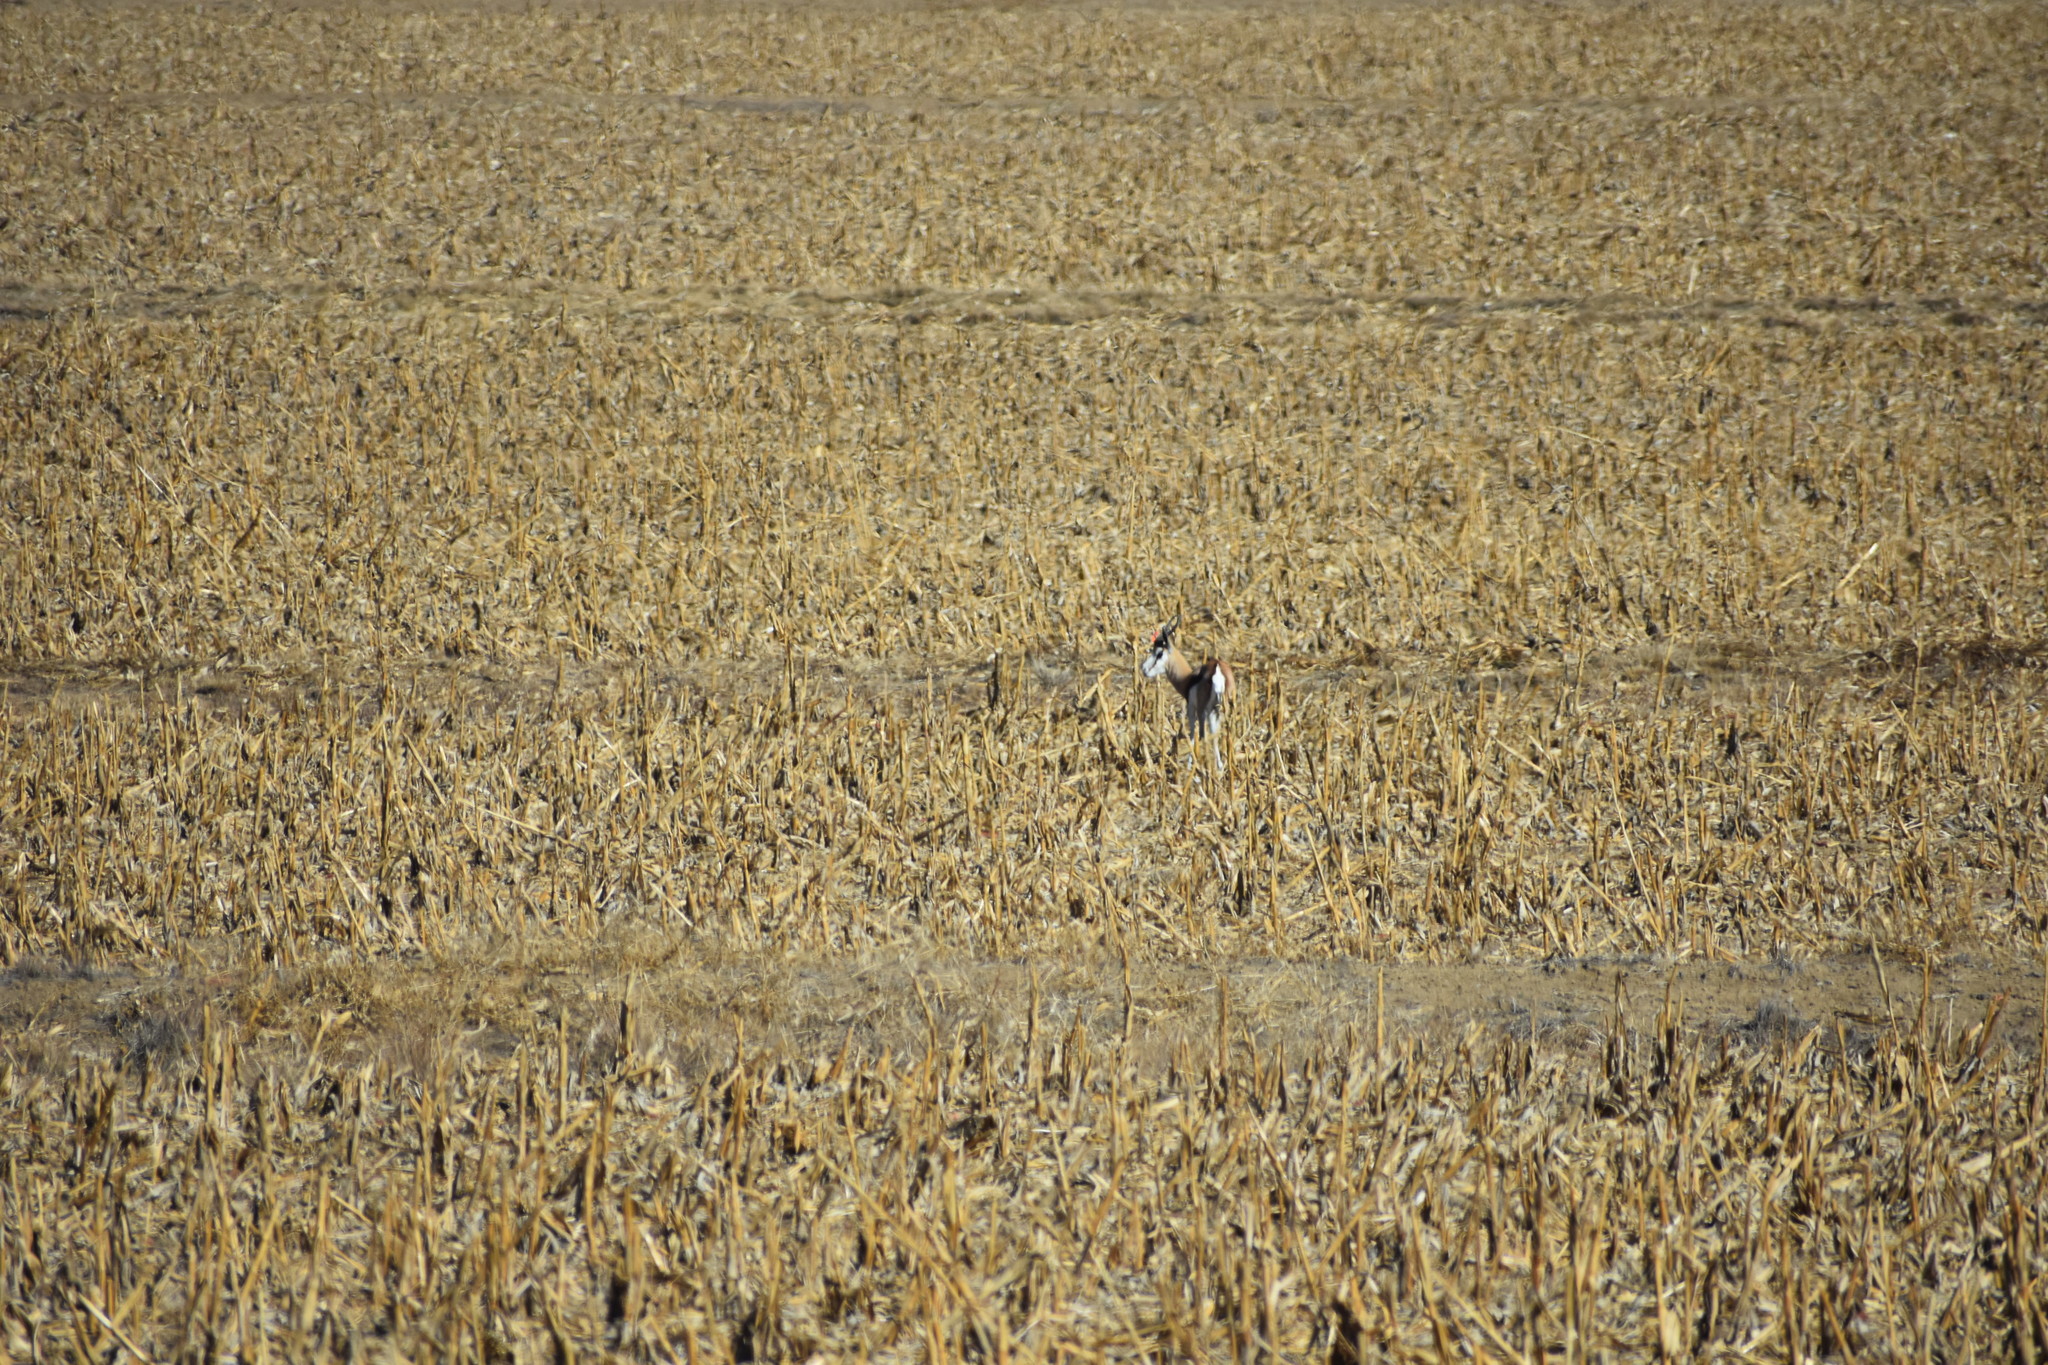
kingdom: Animalia
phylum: Chordata
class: Mammalia
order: Artiodactyla
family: Bovidae
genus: Antidorcas
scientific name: Antidorcas marsupialis
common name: Springbok
